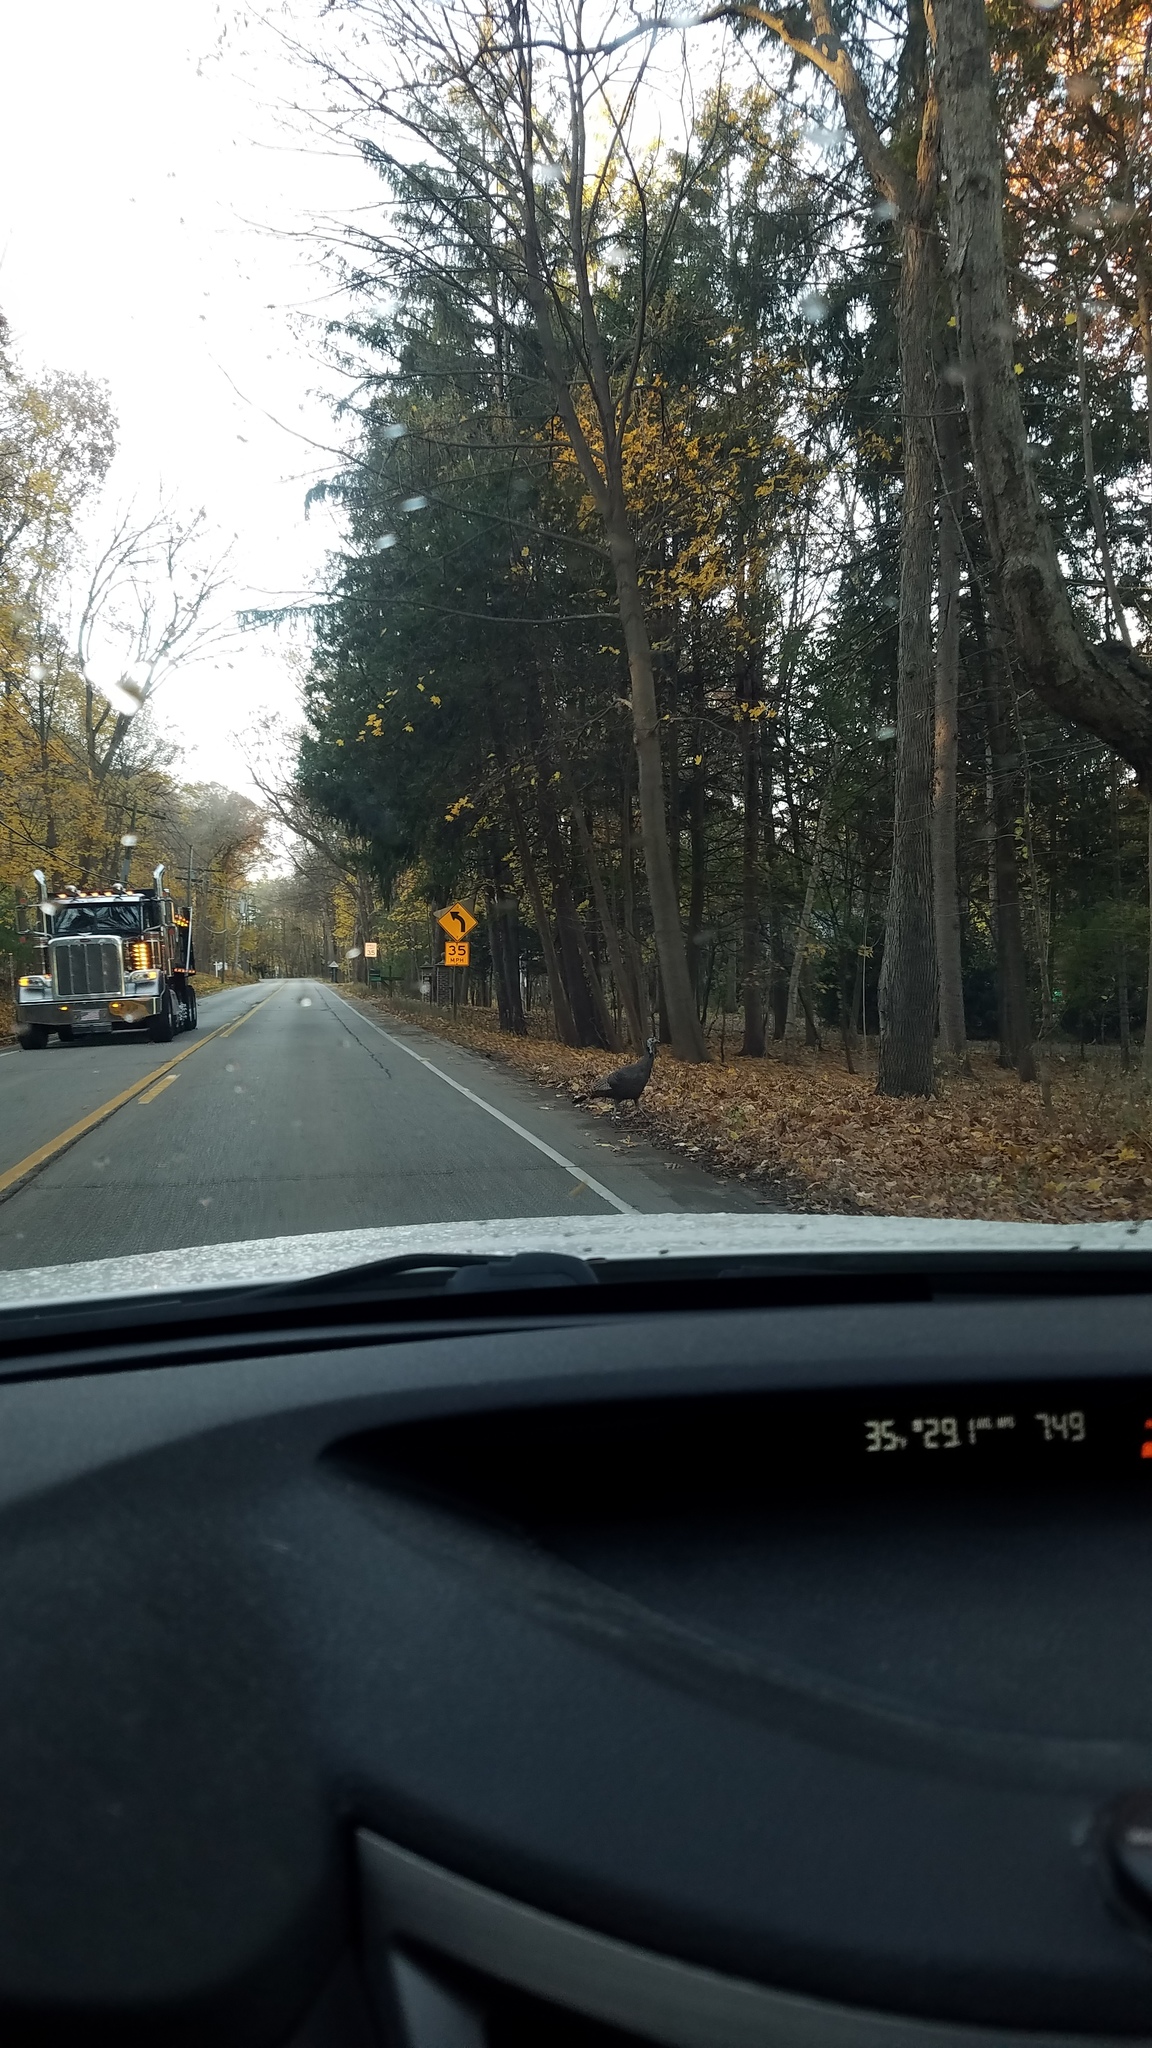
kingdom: Animalia
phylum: Chordata
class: Aves
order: Galliformes
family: Phasianidae
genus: Meleagris
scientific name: Meleagris gallopavo
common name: Wild turkey
